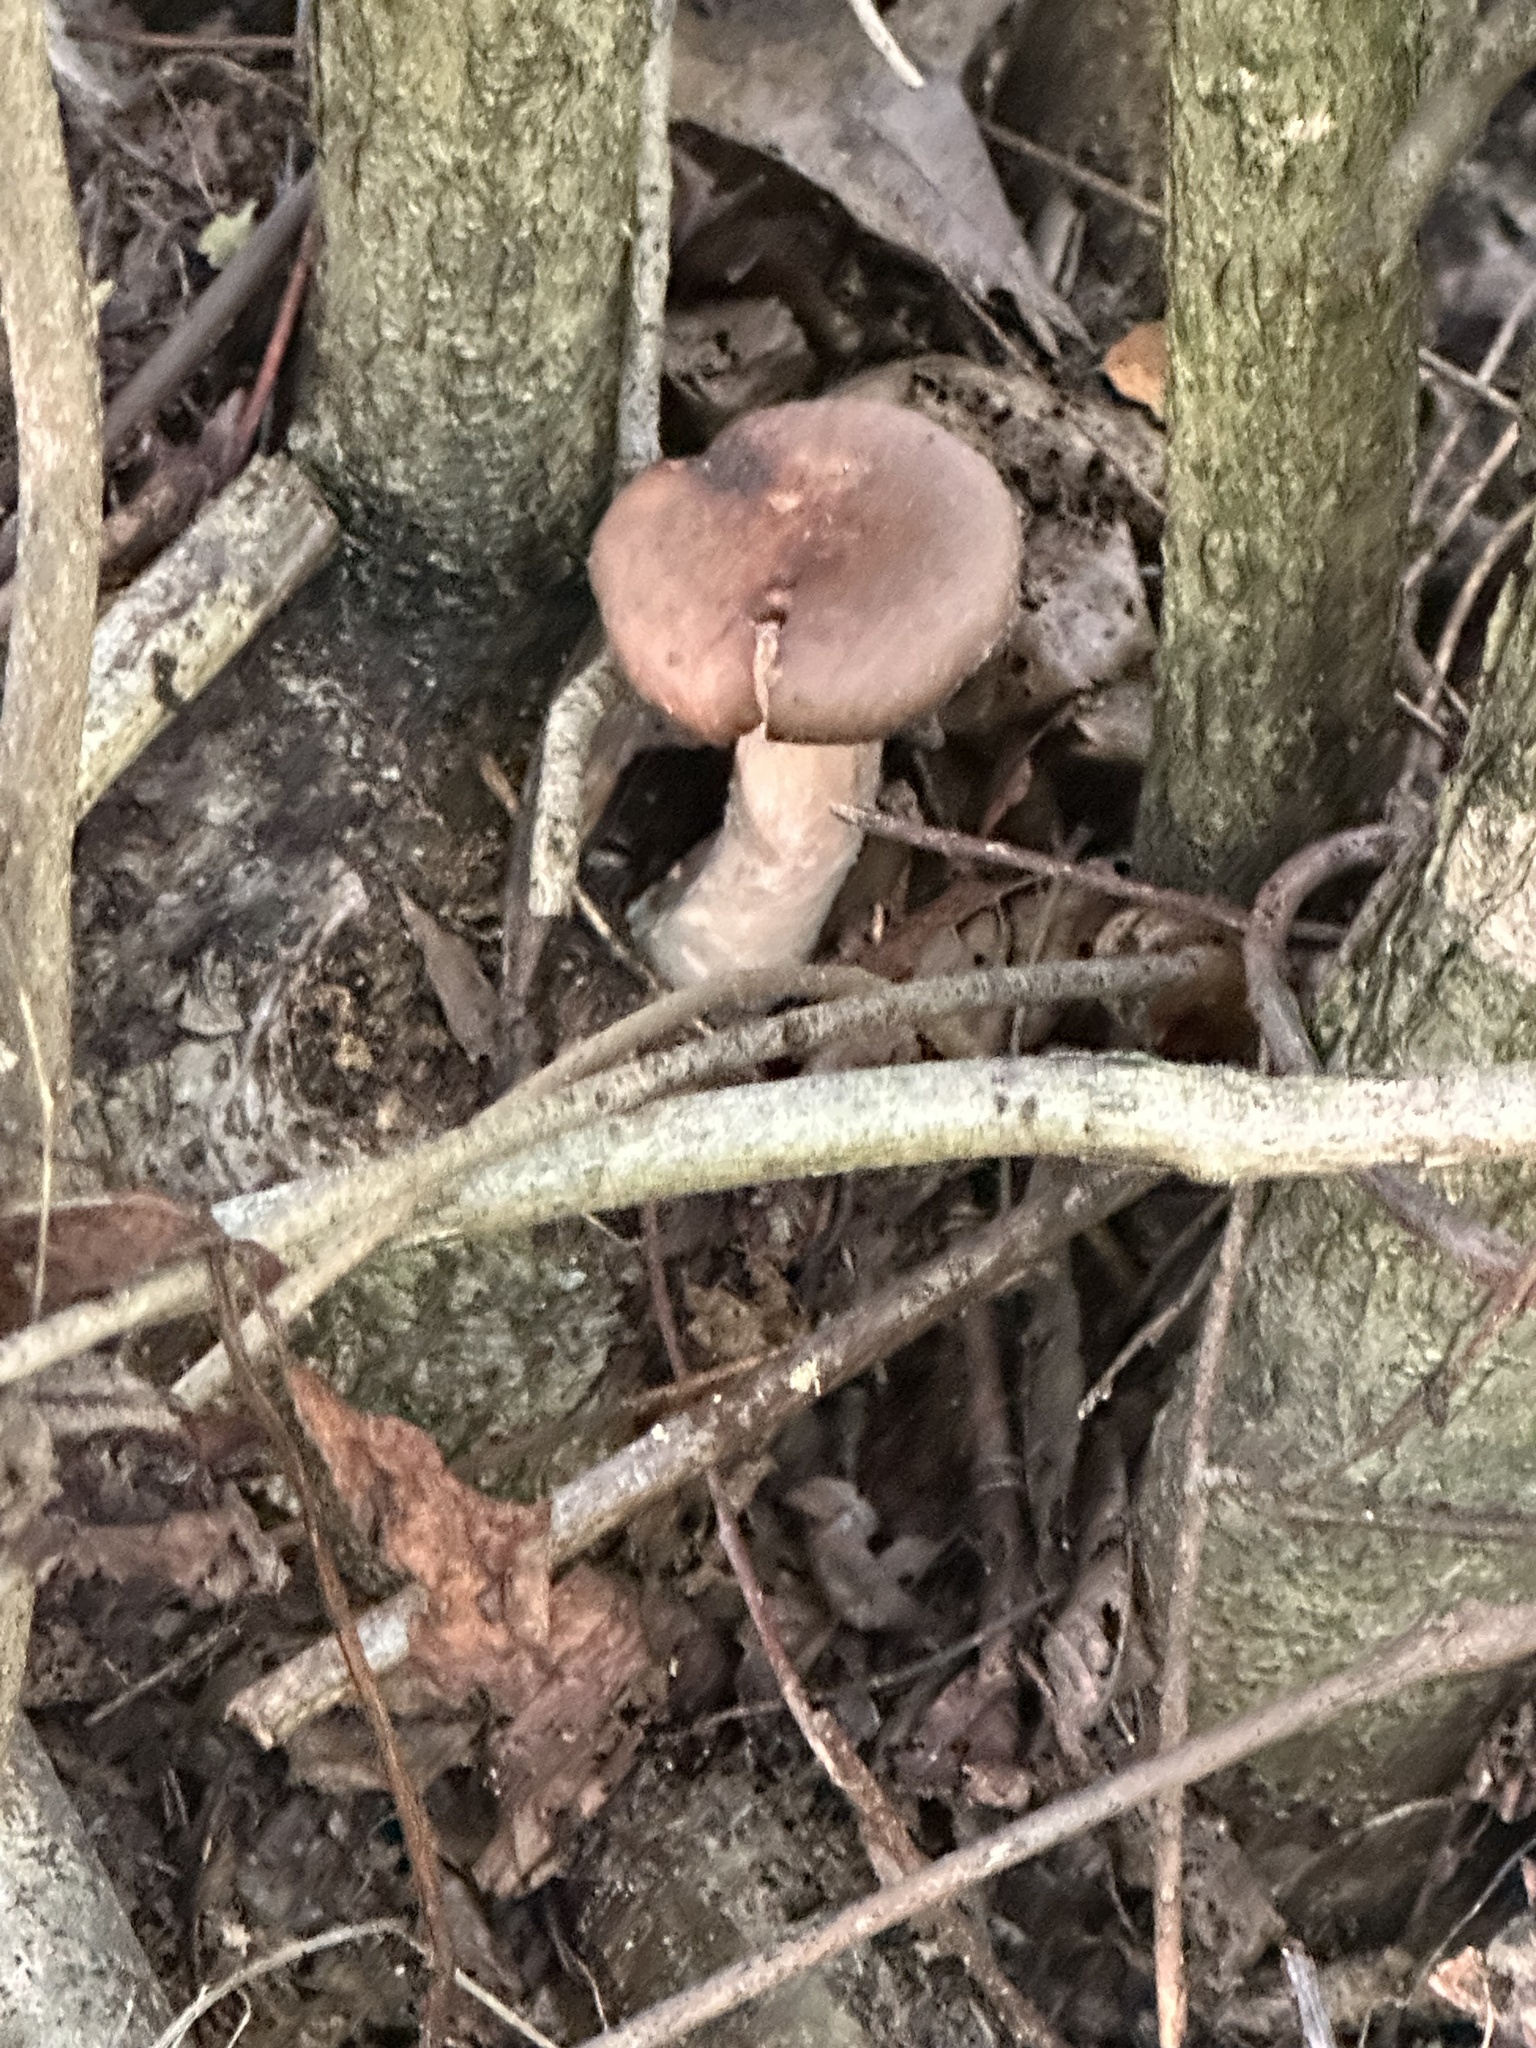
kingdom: Fungi
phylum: Basidiomycota
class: Agaricomycetes
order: Agaricales
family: Physalacriaceae
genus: Armillaria
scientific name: Armillaria gallica
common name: Bulbous honey fungus
